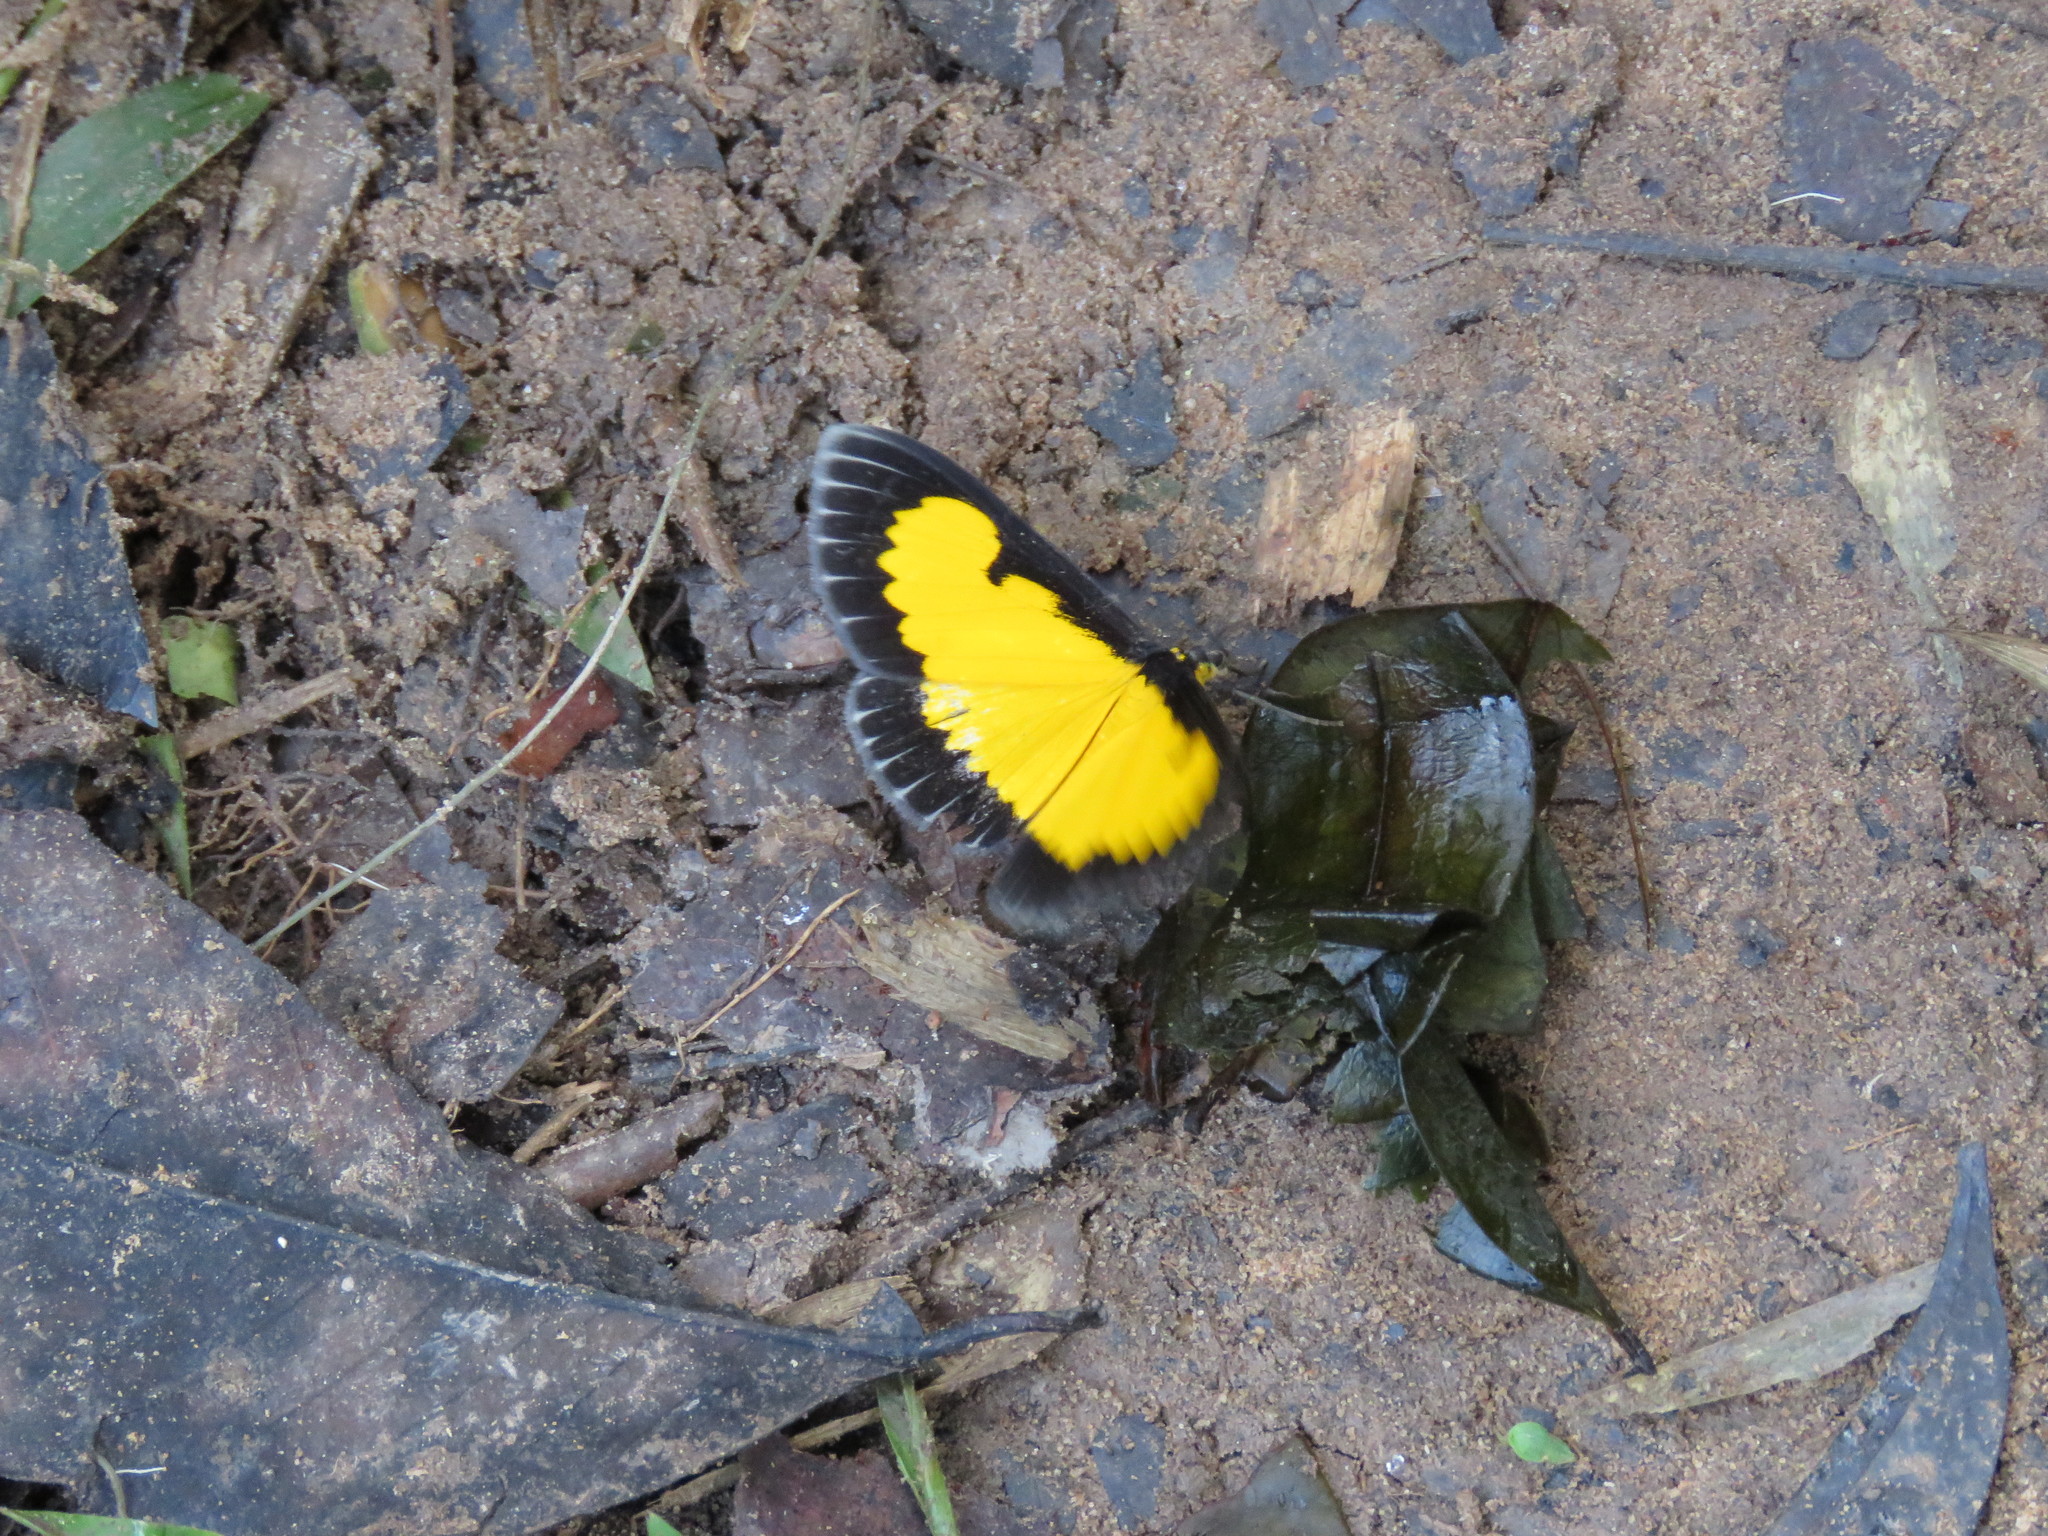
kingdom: Animalia
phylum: Arthropoda
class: Insecta
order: Lepidoptera
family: Geometridae
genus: Xanthyris
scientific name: Xanthyris flaveolata
